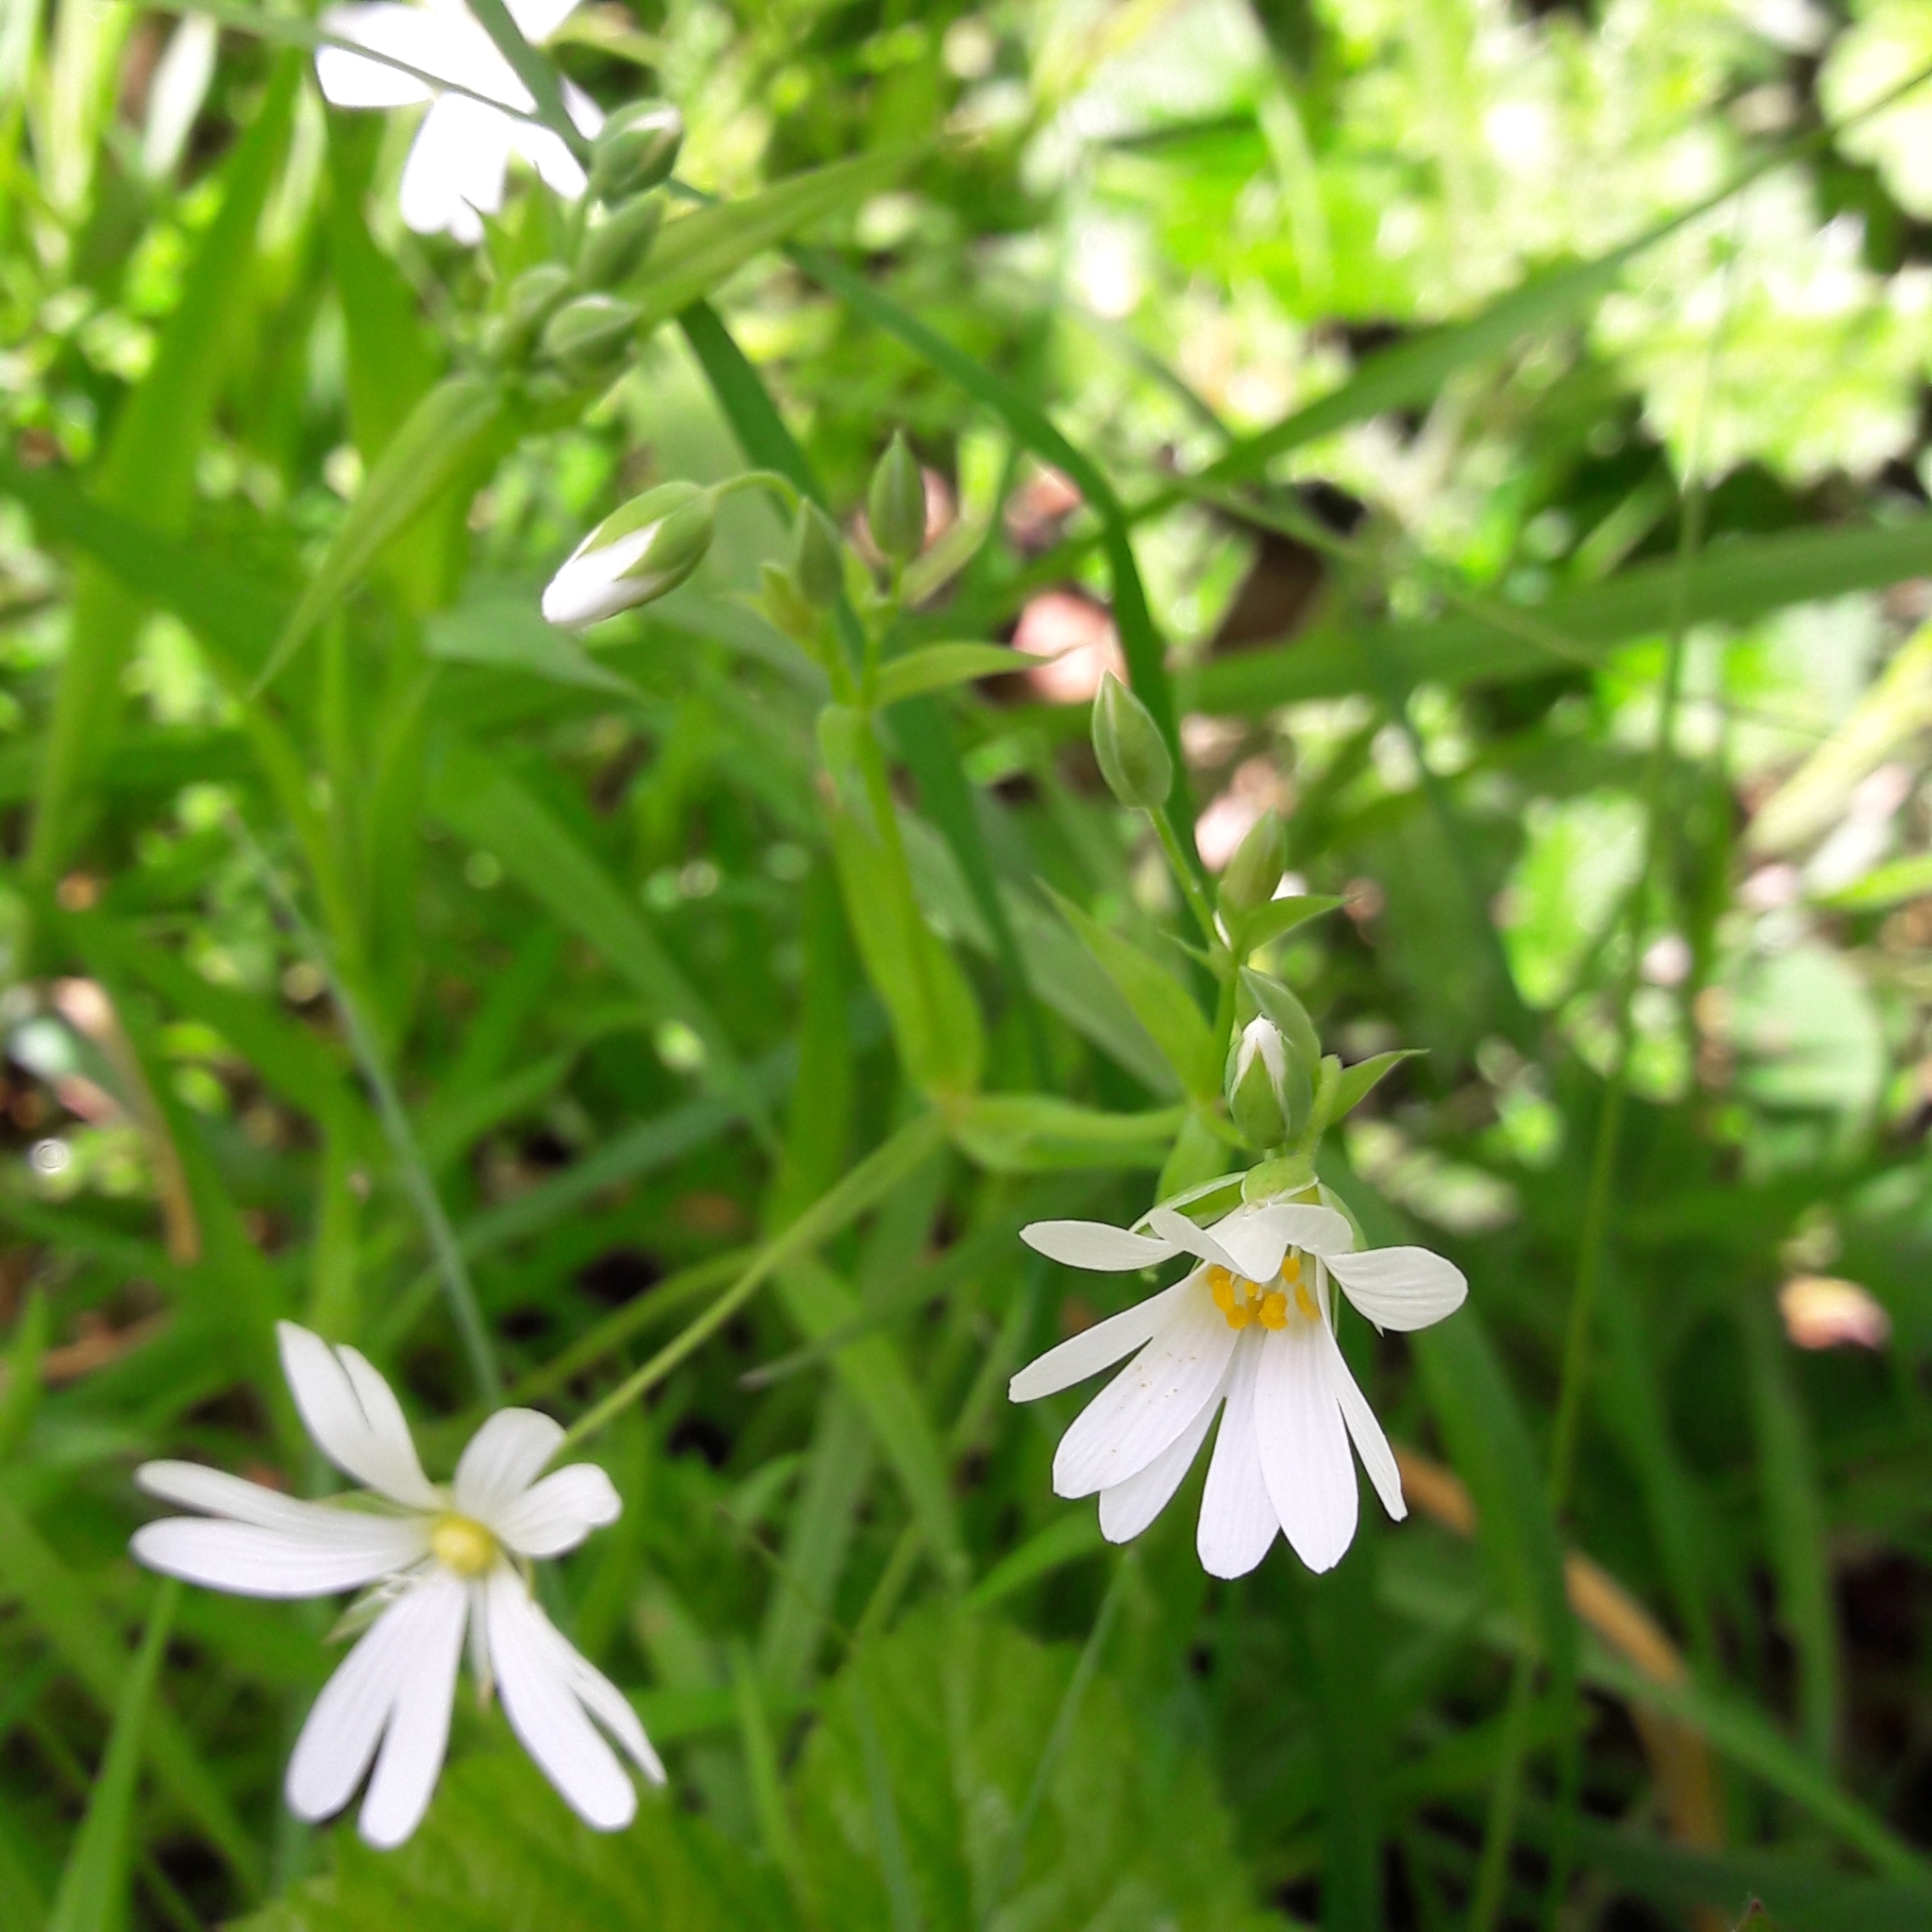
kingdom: Plantae
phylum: Tracheophyta
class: Magnoliopsida
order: Caryophyllales
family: Caryophyllaceae
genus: Rabelera
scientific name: Rabelera holostea
